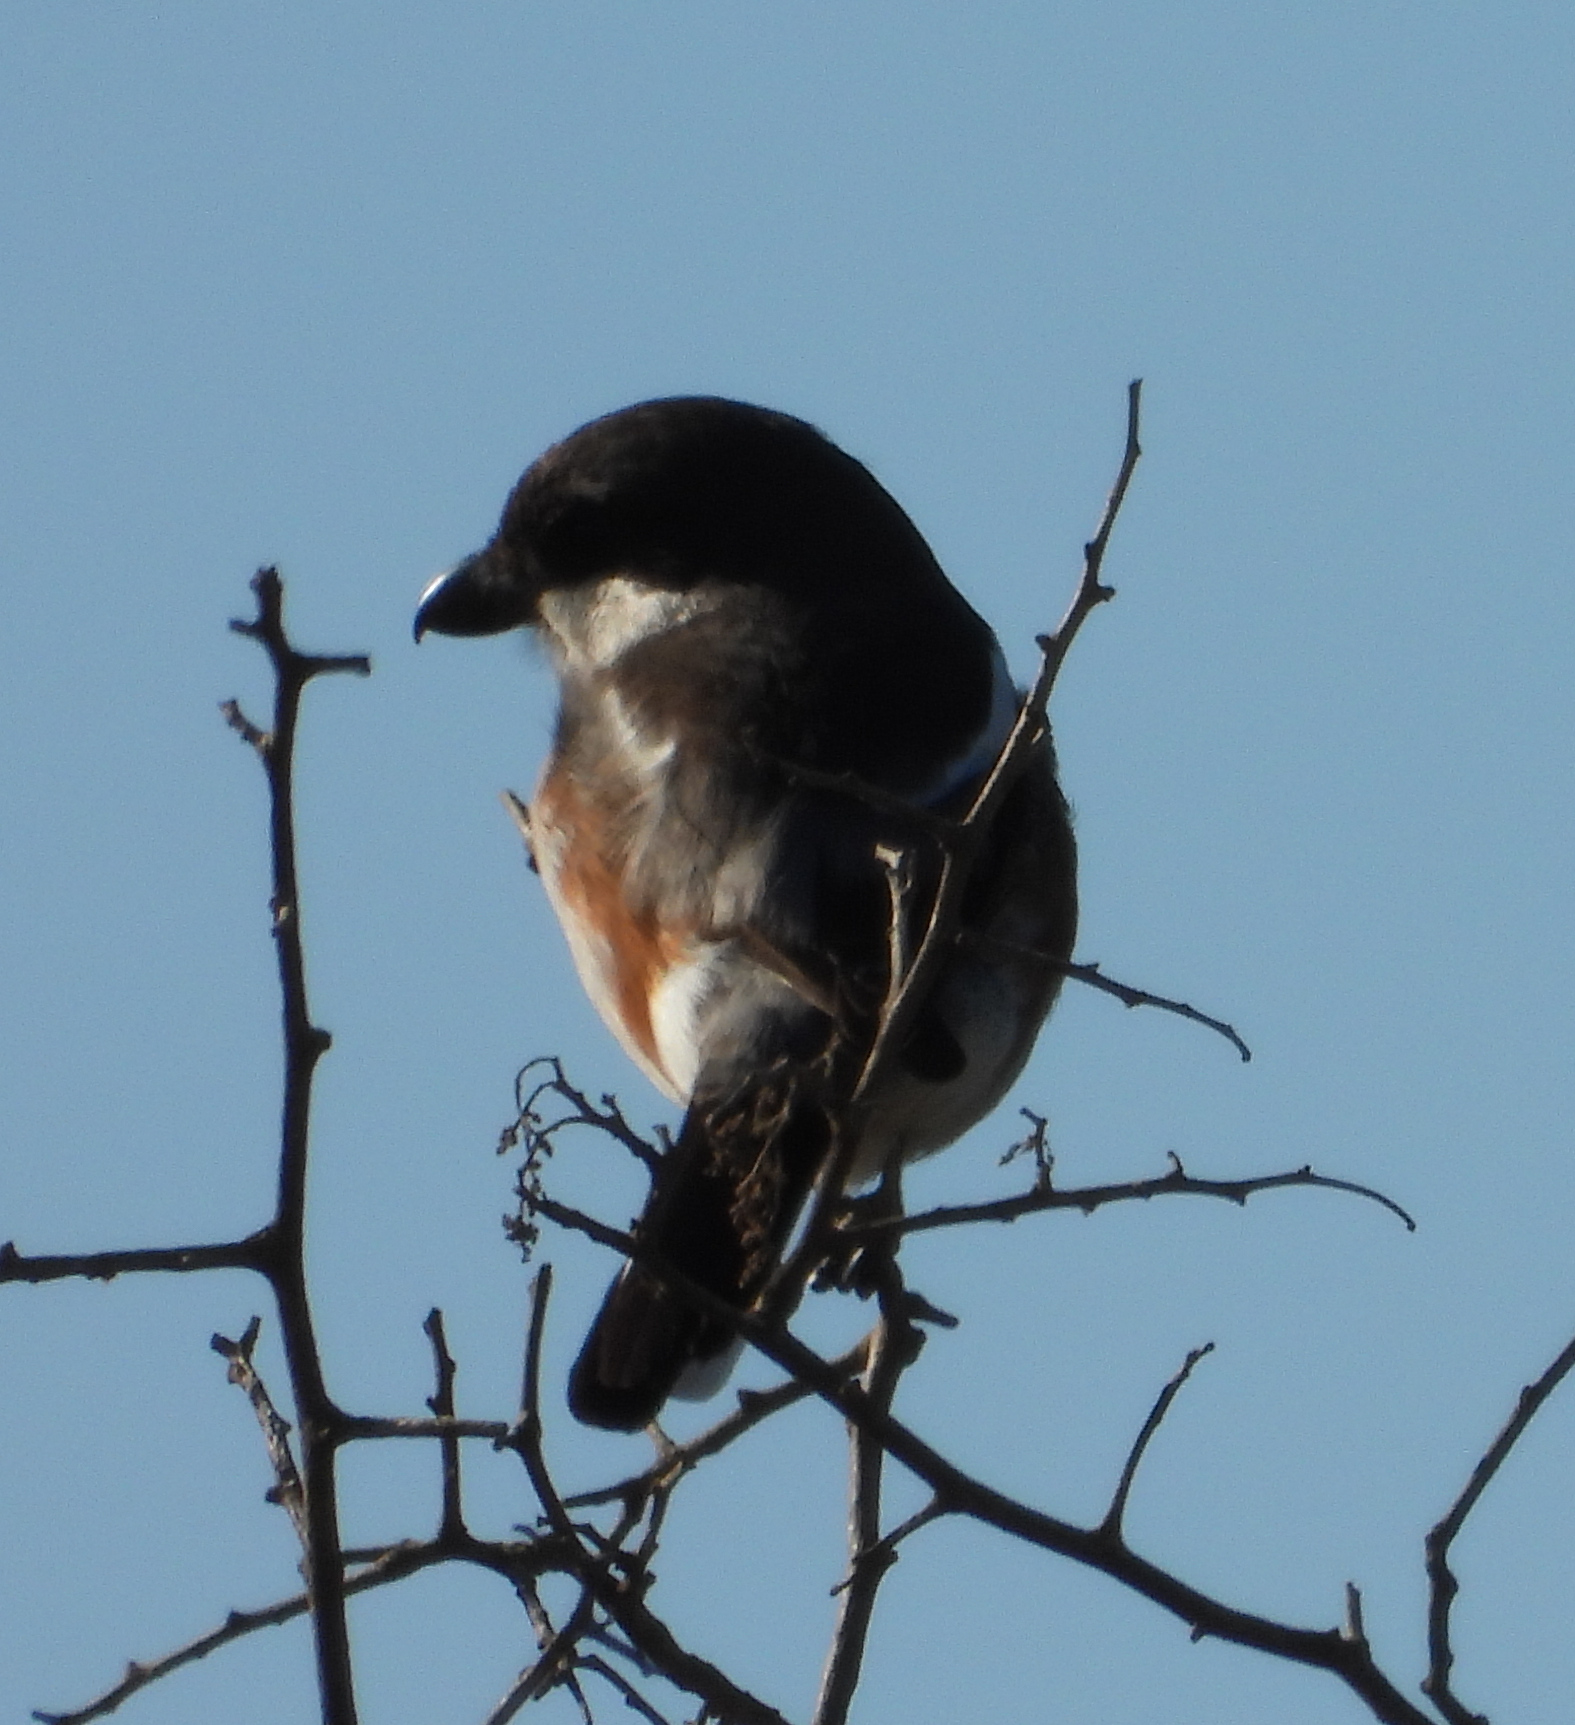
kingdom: Animalia
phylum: Chordata
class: Aves
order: Passeriformes
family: Laniidae
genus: Lanius
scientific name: Lanius collaris
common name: Southern fiscal
